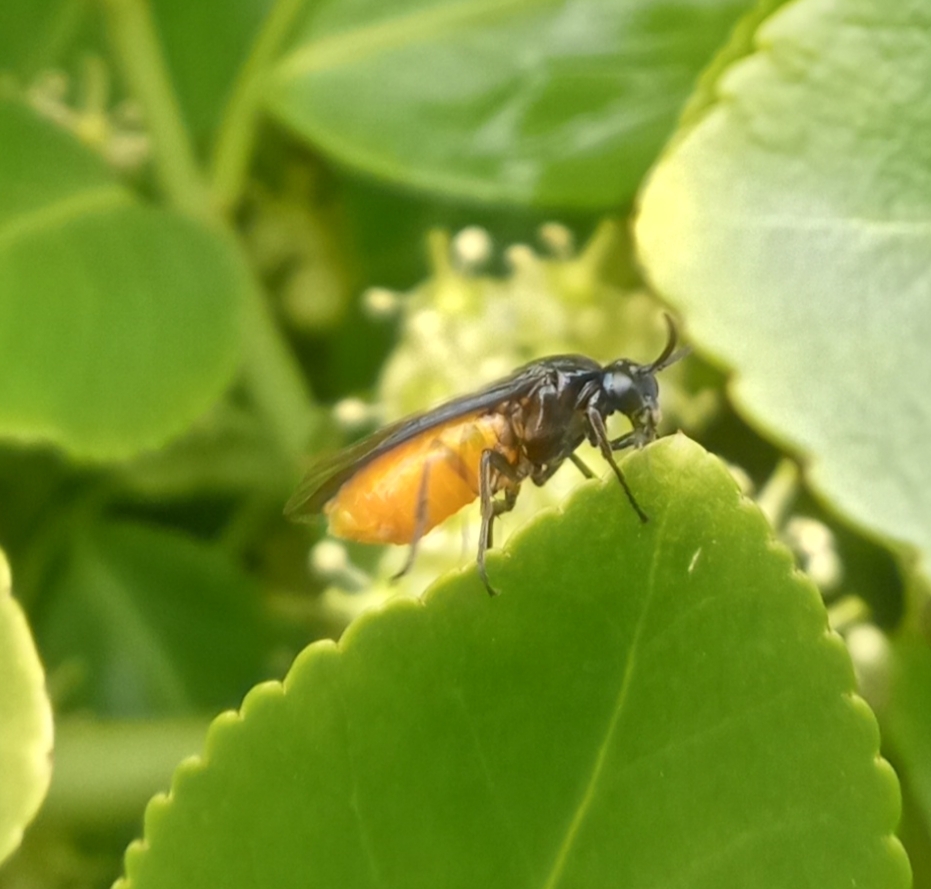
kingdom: Animalia
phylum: Arthropoda
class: Insecta
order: Hymenoptera
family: Argidae
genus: Arge
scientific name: Arge pagana
